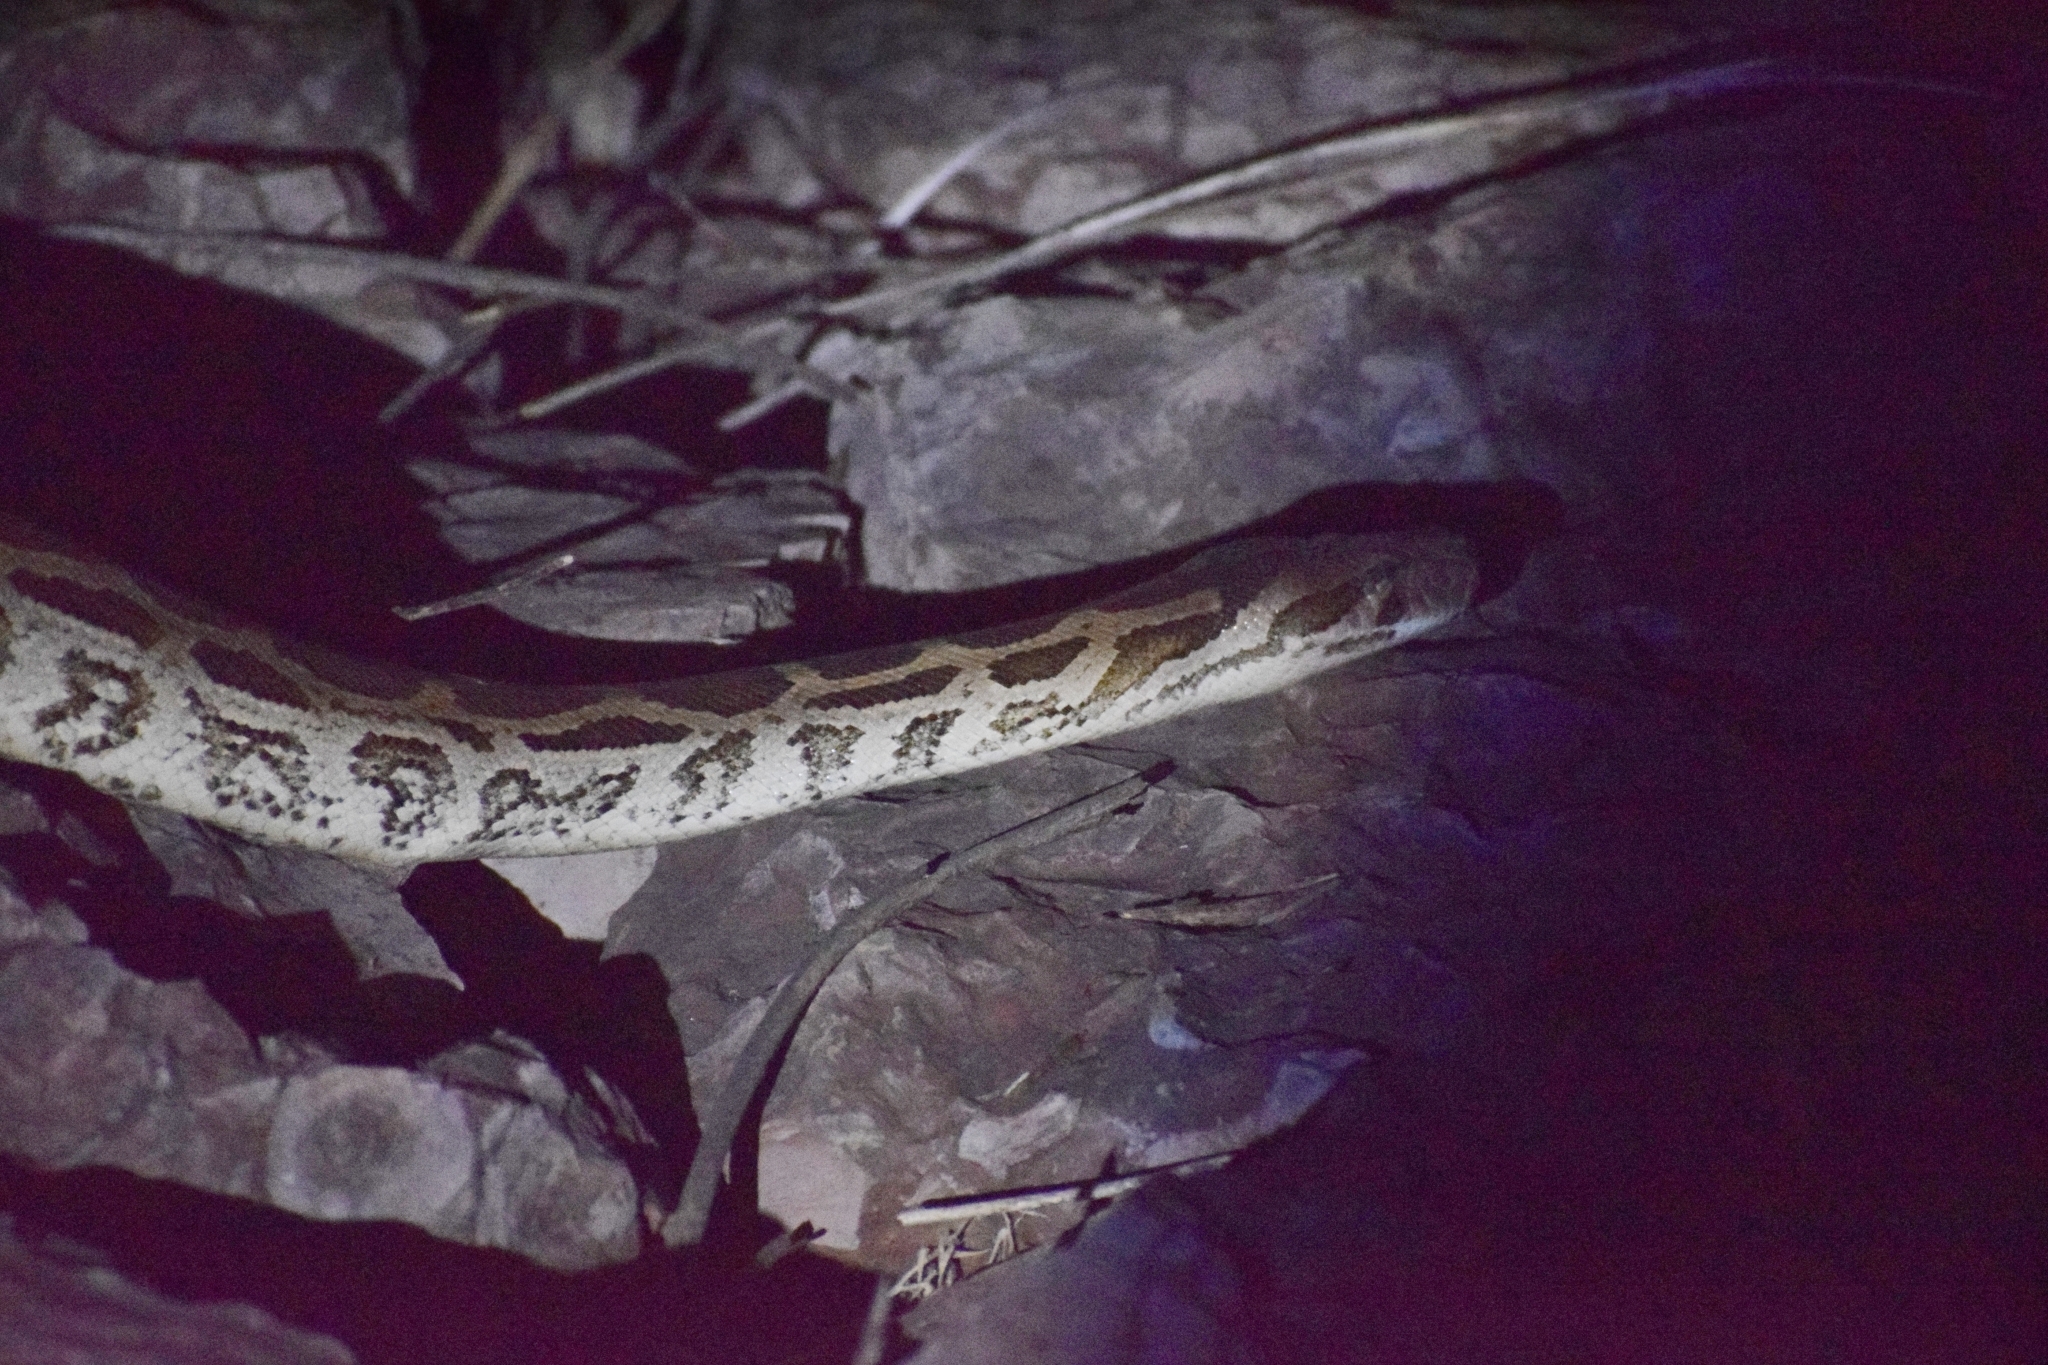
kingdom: Animalia
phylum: Chordata
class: Squamata
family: Pythonidae
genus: Python
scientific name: Python molurus
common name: Indian rock python
